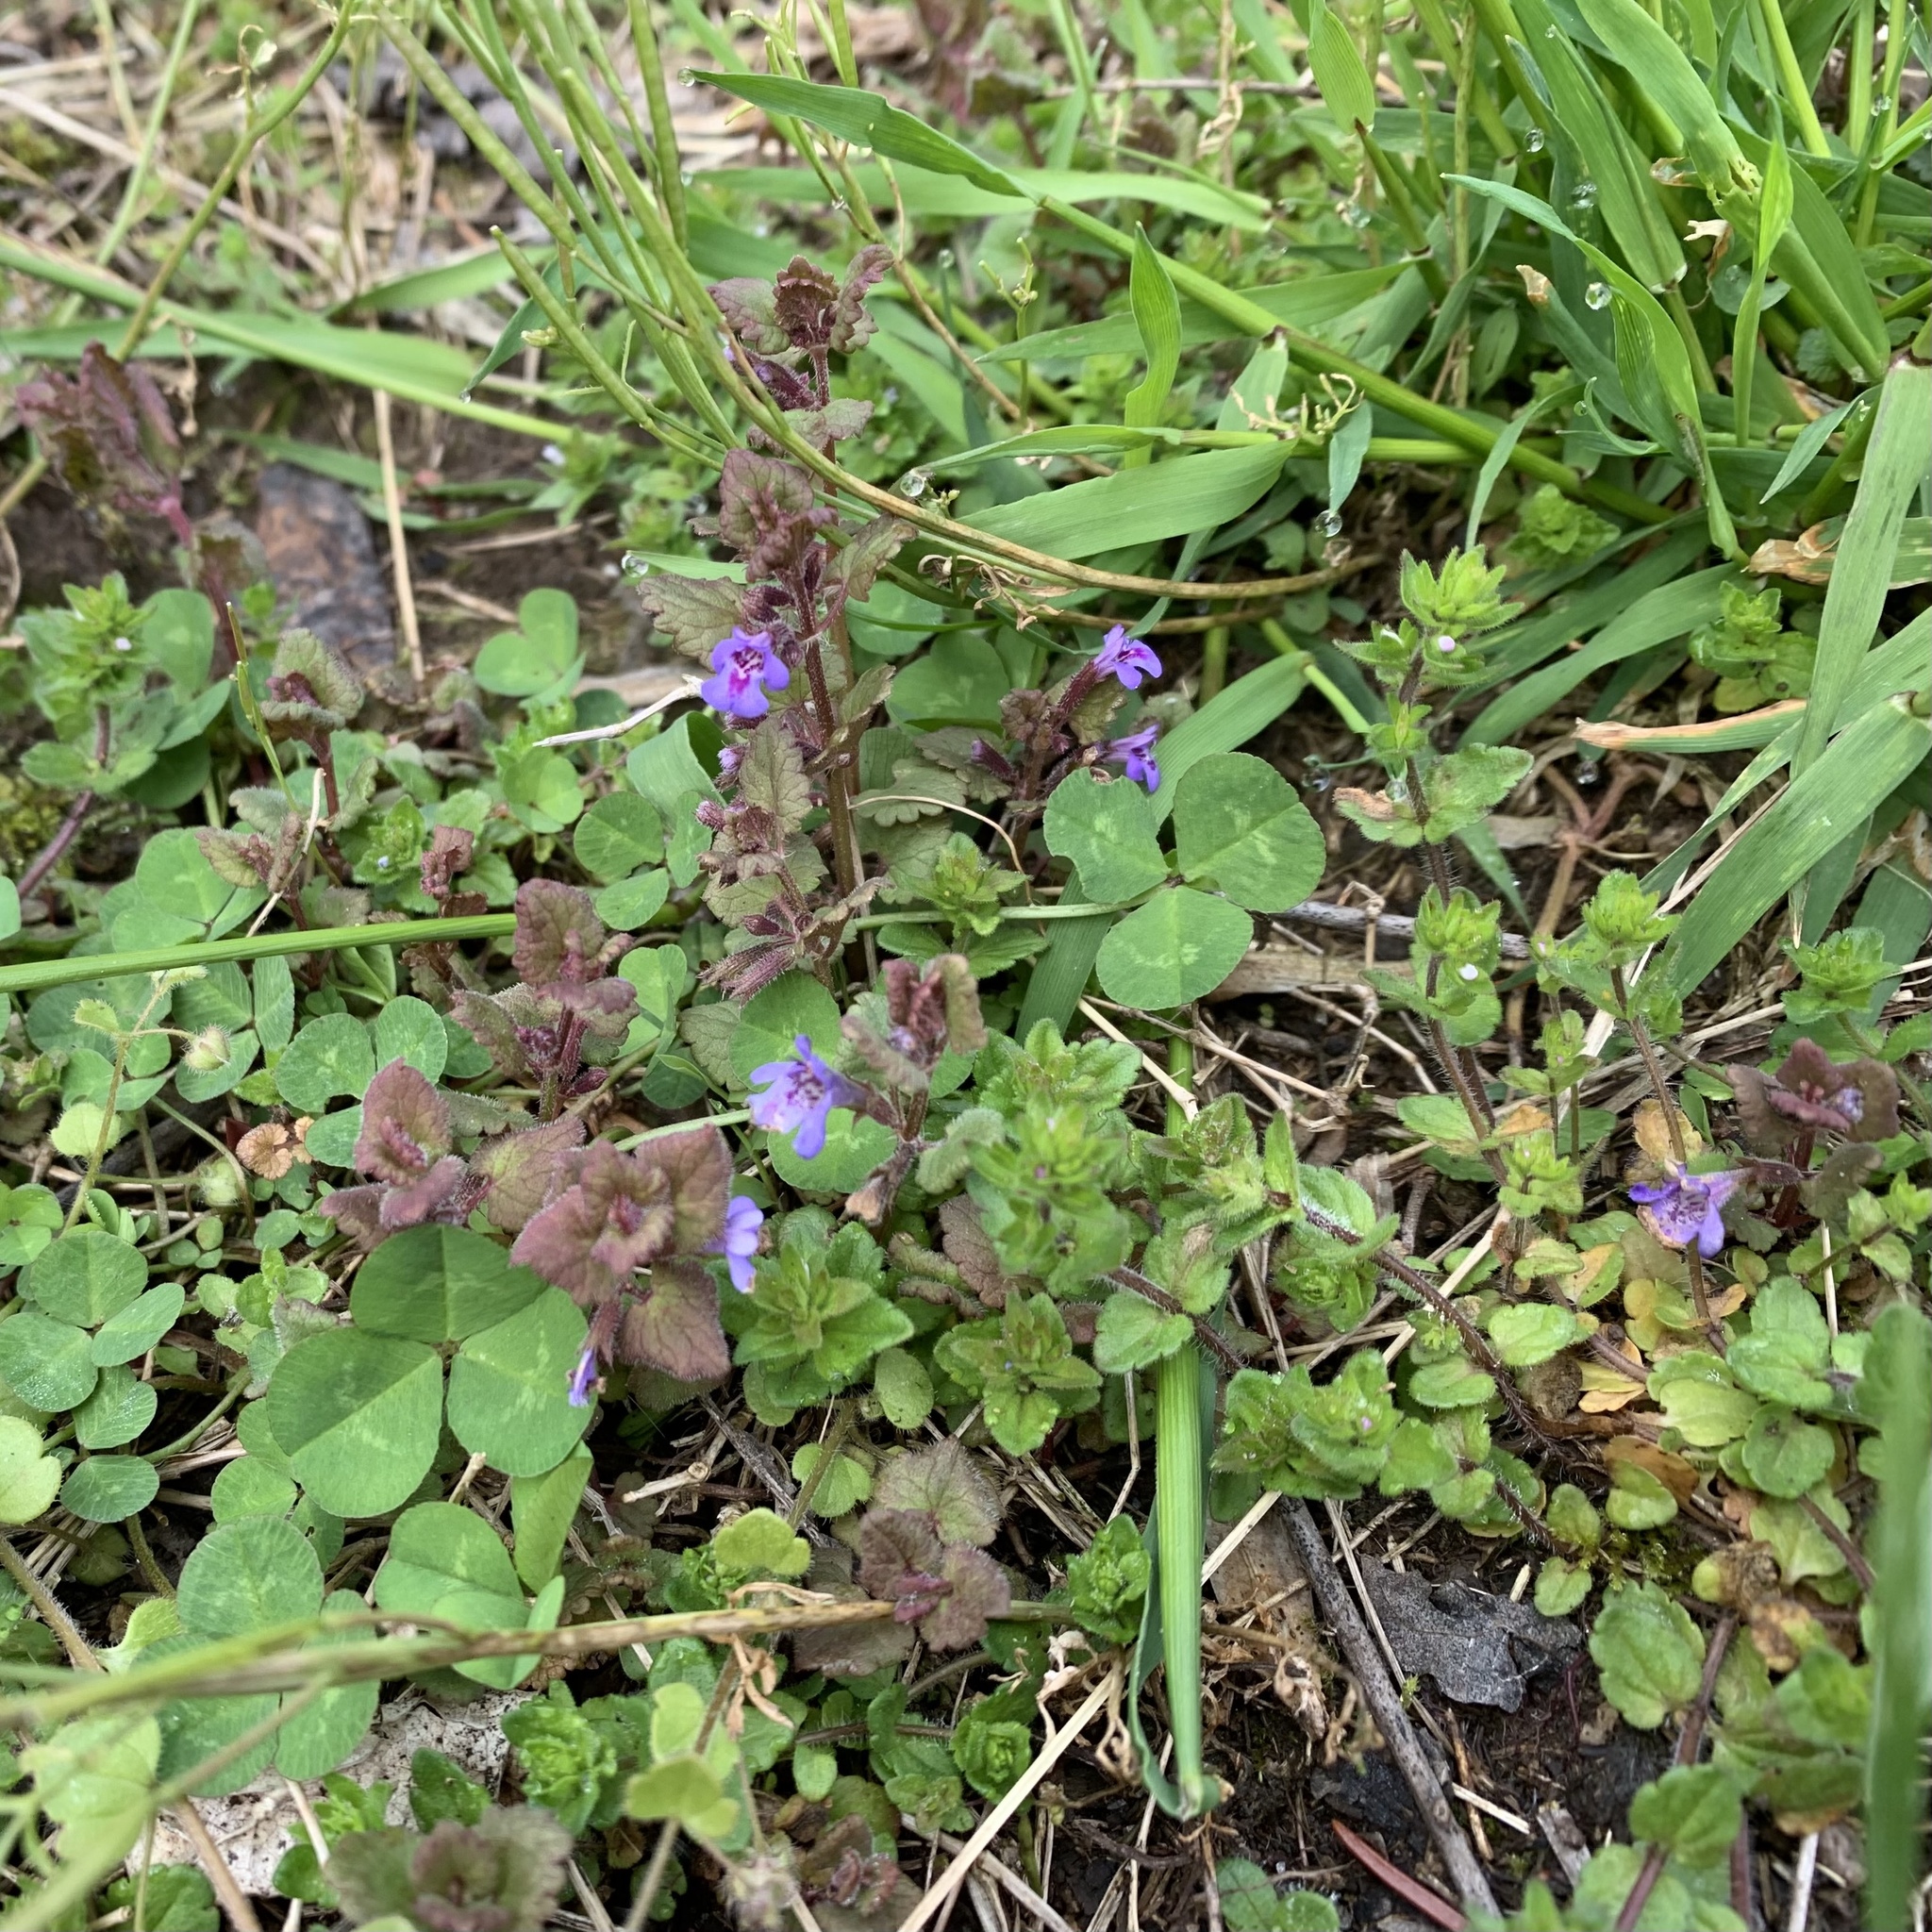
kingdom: Plantae
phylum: Tracheophyta
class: Magnoliopsida
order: Lamiales
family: Lamiaceae
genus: Glechoma
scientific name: Glechoma hederacea
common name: Ground ivy
